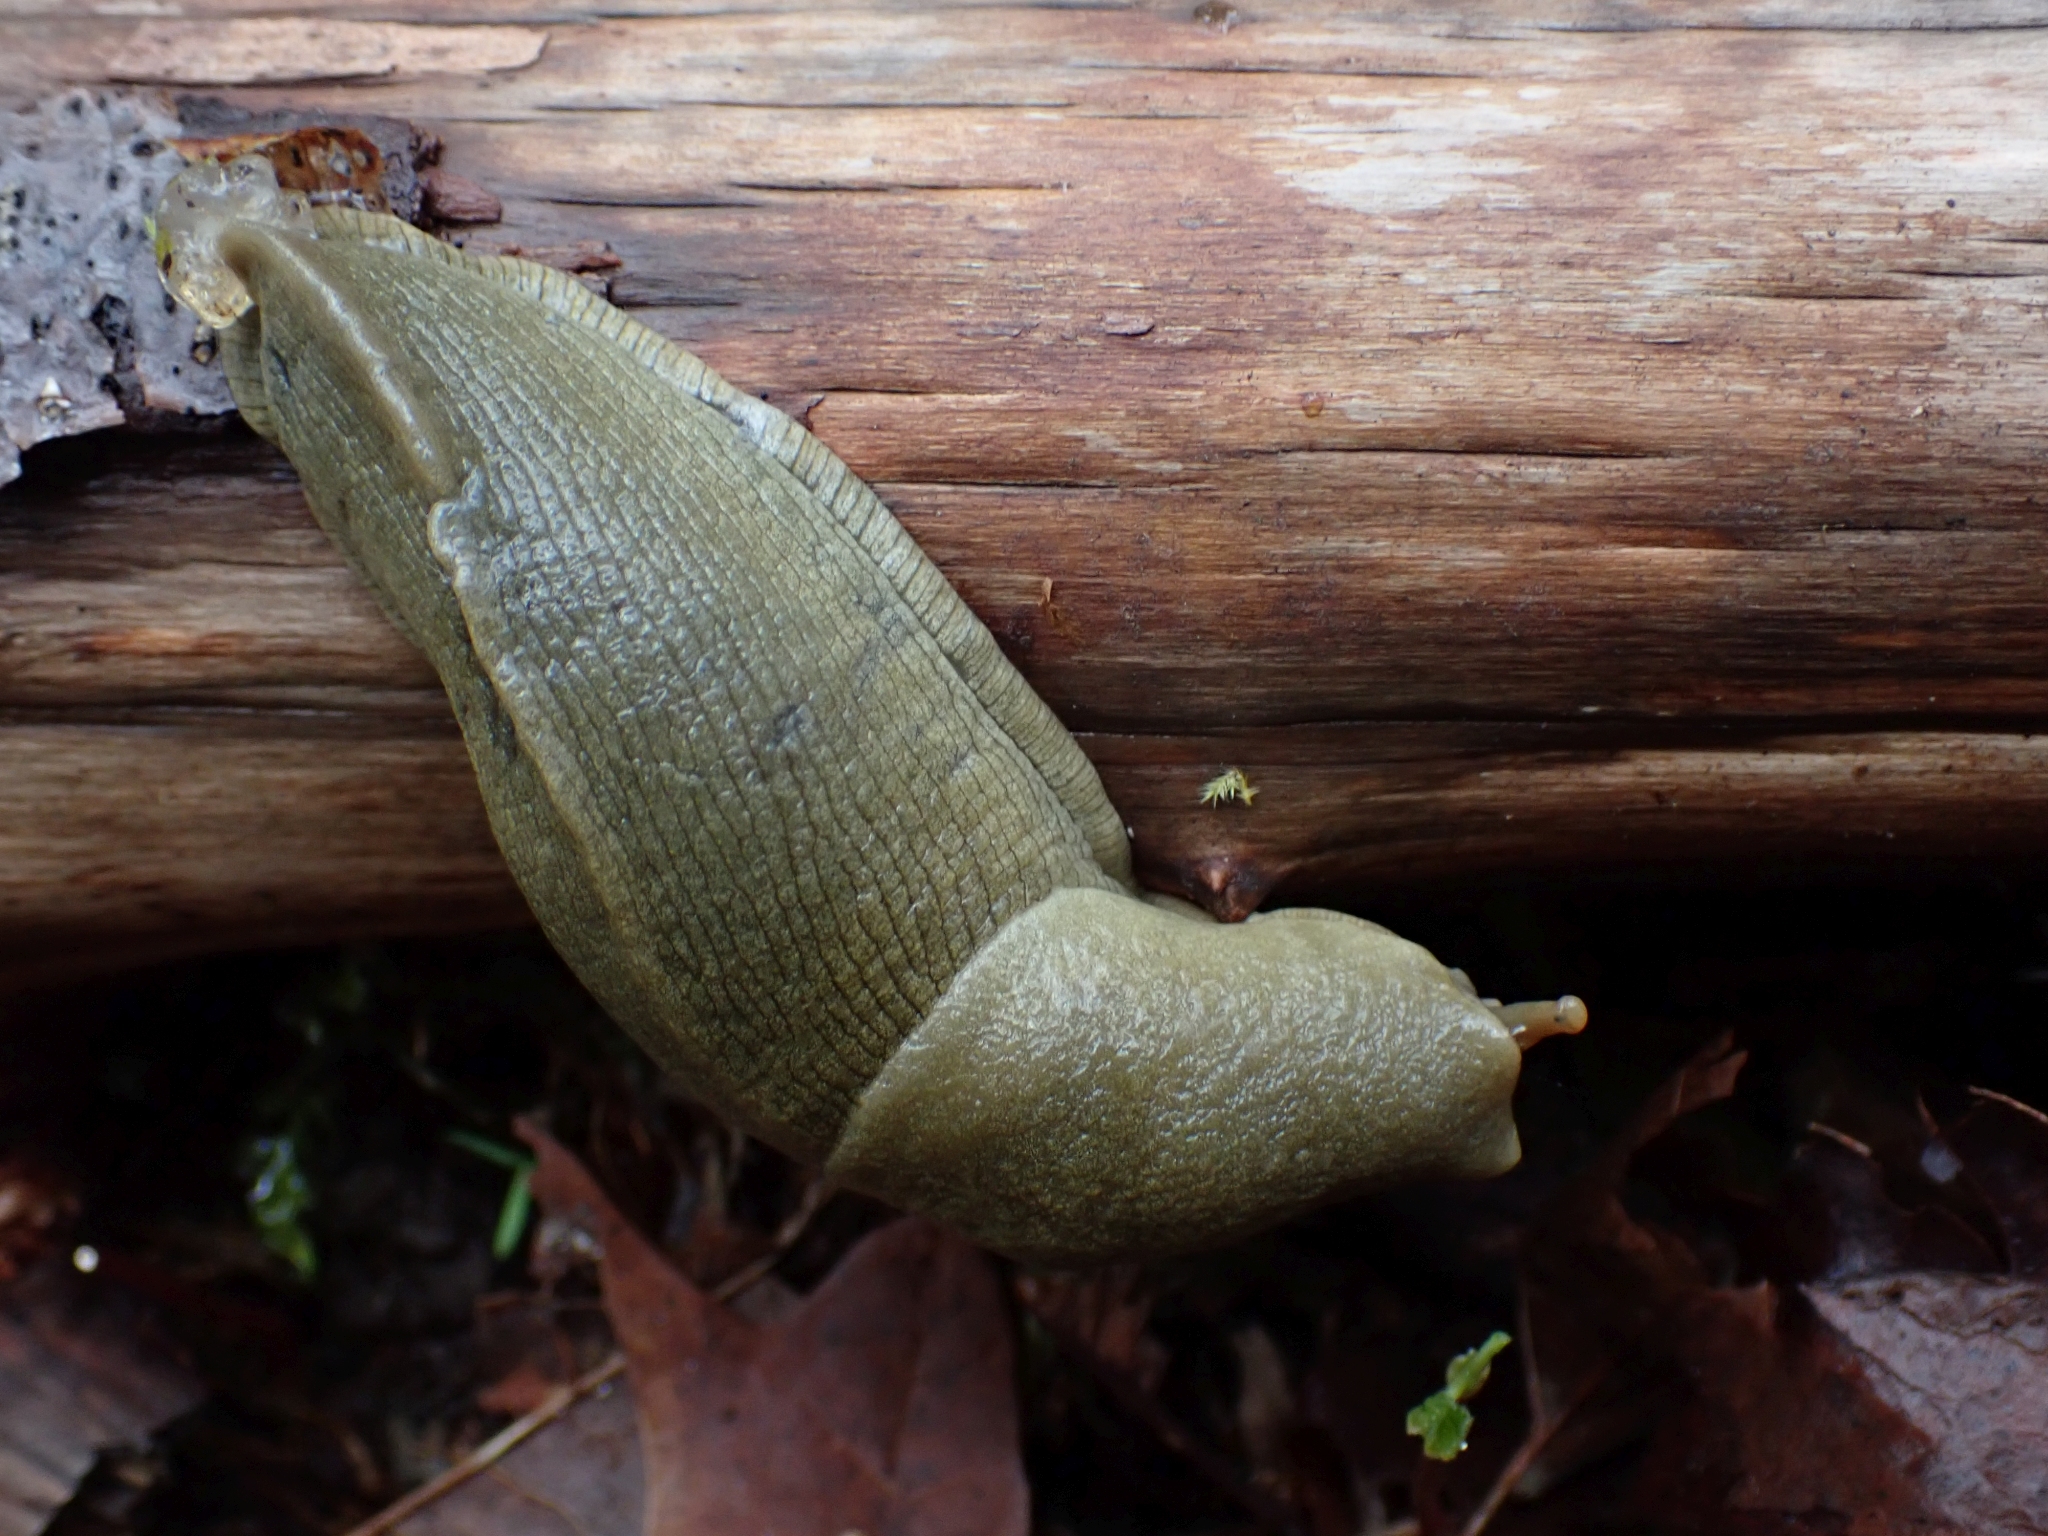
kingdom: Animalia
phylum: Mollusca
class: Gastropoda
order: Stylommatophora
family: Ariolimacidae
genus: Ariolimax
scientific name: Ariolimax columbianus
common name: Pacific banana slug
